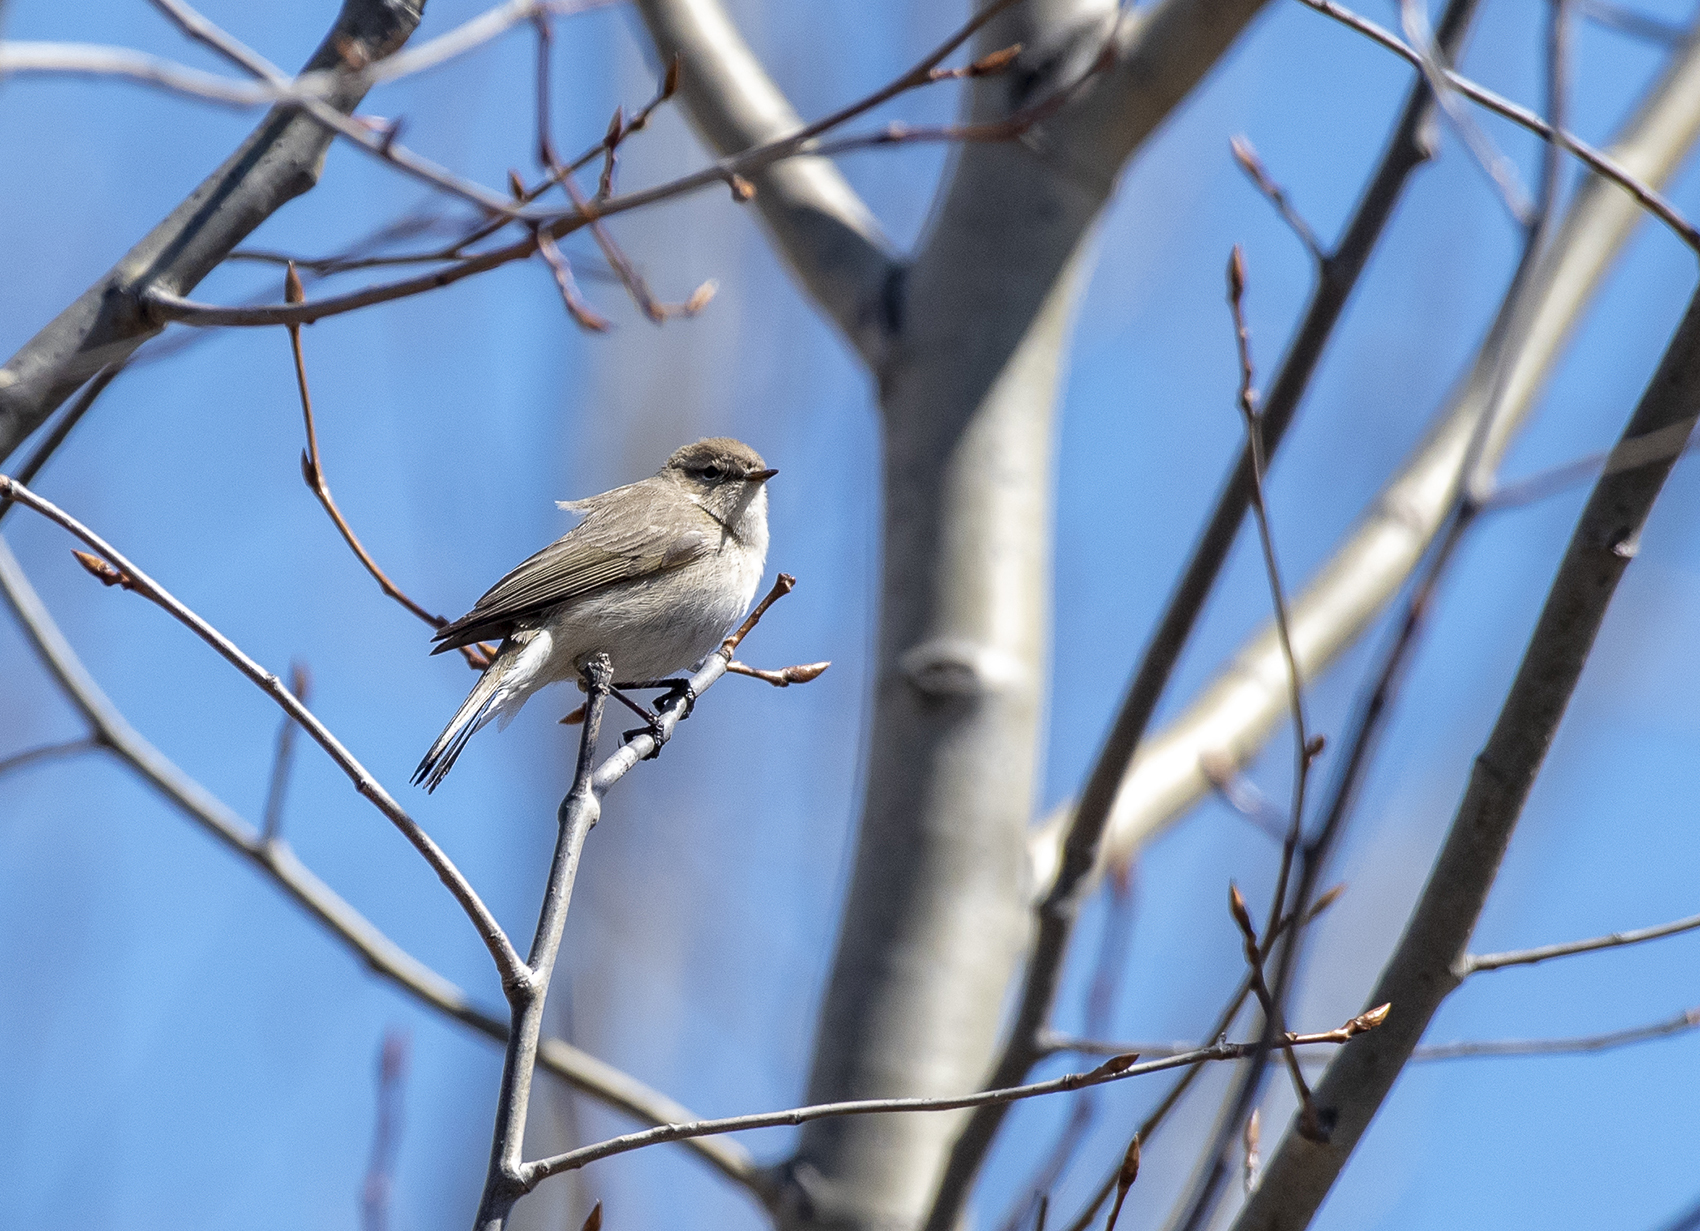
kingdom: Animalia
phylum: Chordata
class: Aves
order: Passeriformes
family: Phylloscopidae
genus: Phylloscopus
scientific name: Phylloscopus collybita
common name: Common chiffchaff
